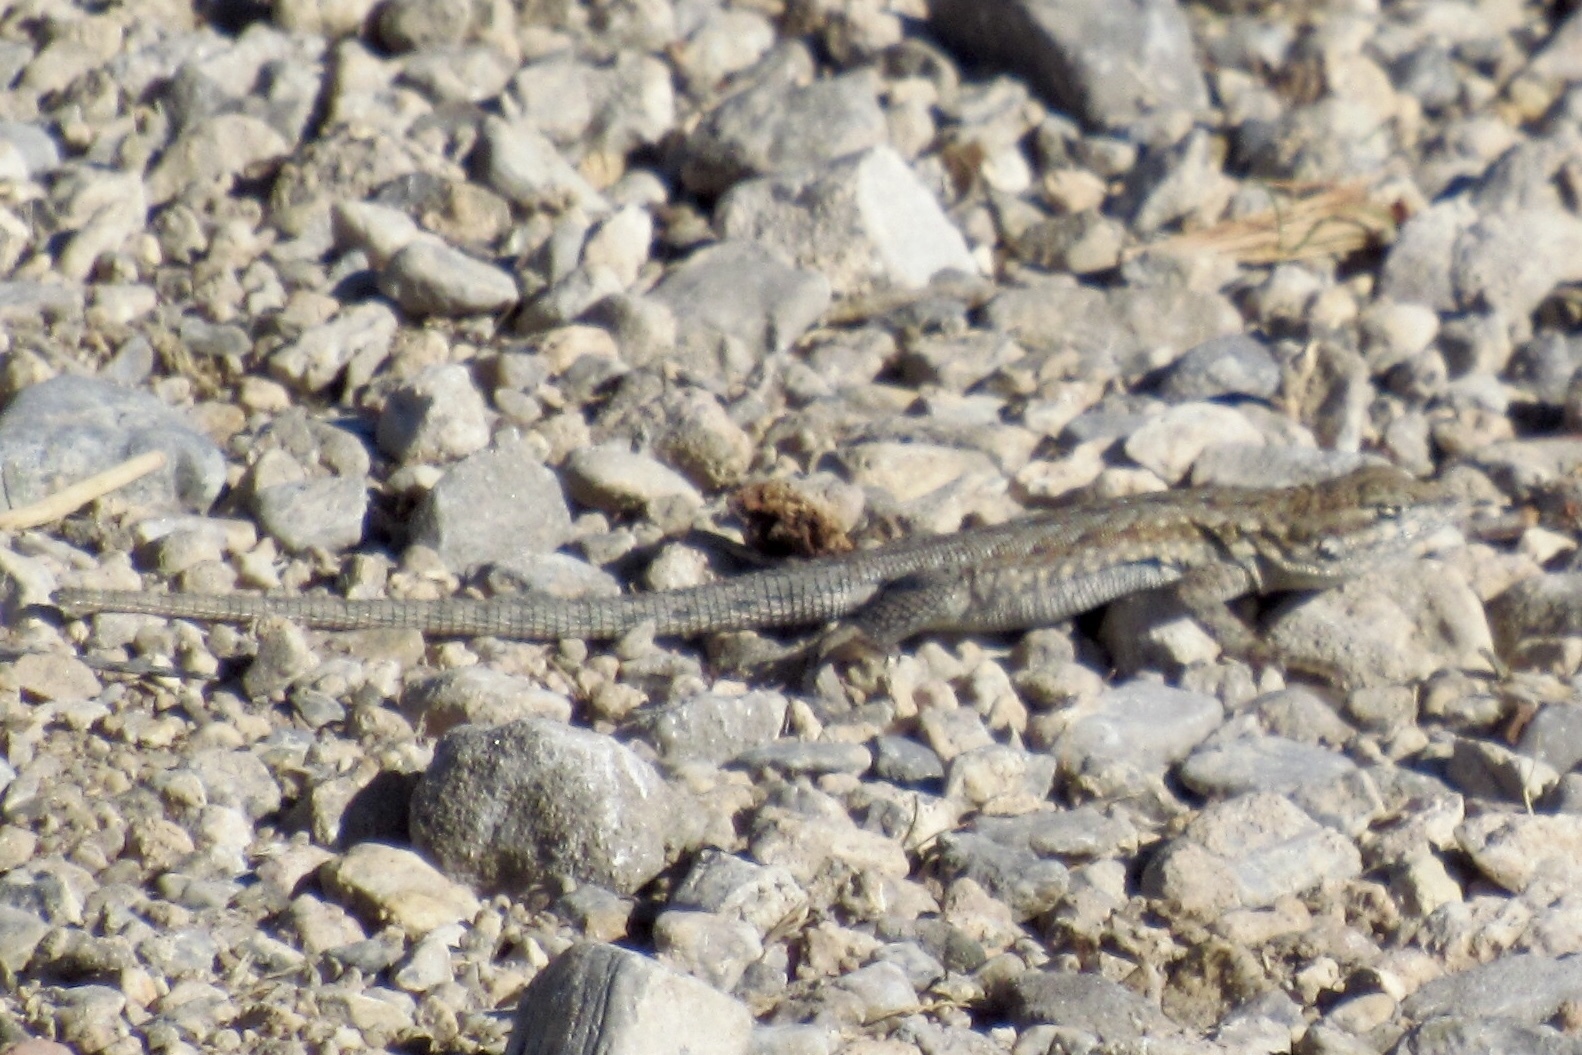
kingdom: Animalia
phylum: Chordata
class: Squamata
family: Phrynosomatidae
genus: Uta
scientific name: Uta stansburiana
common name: Side-blotched lizard
